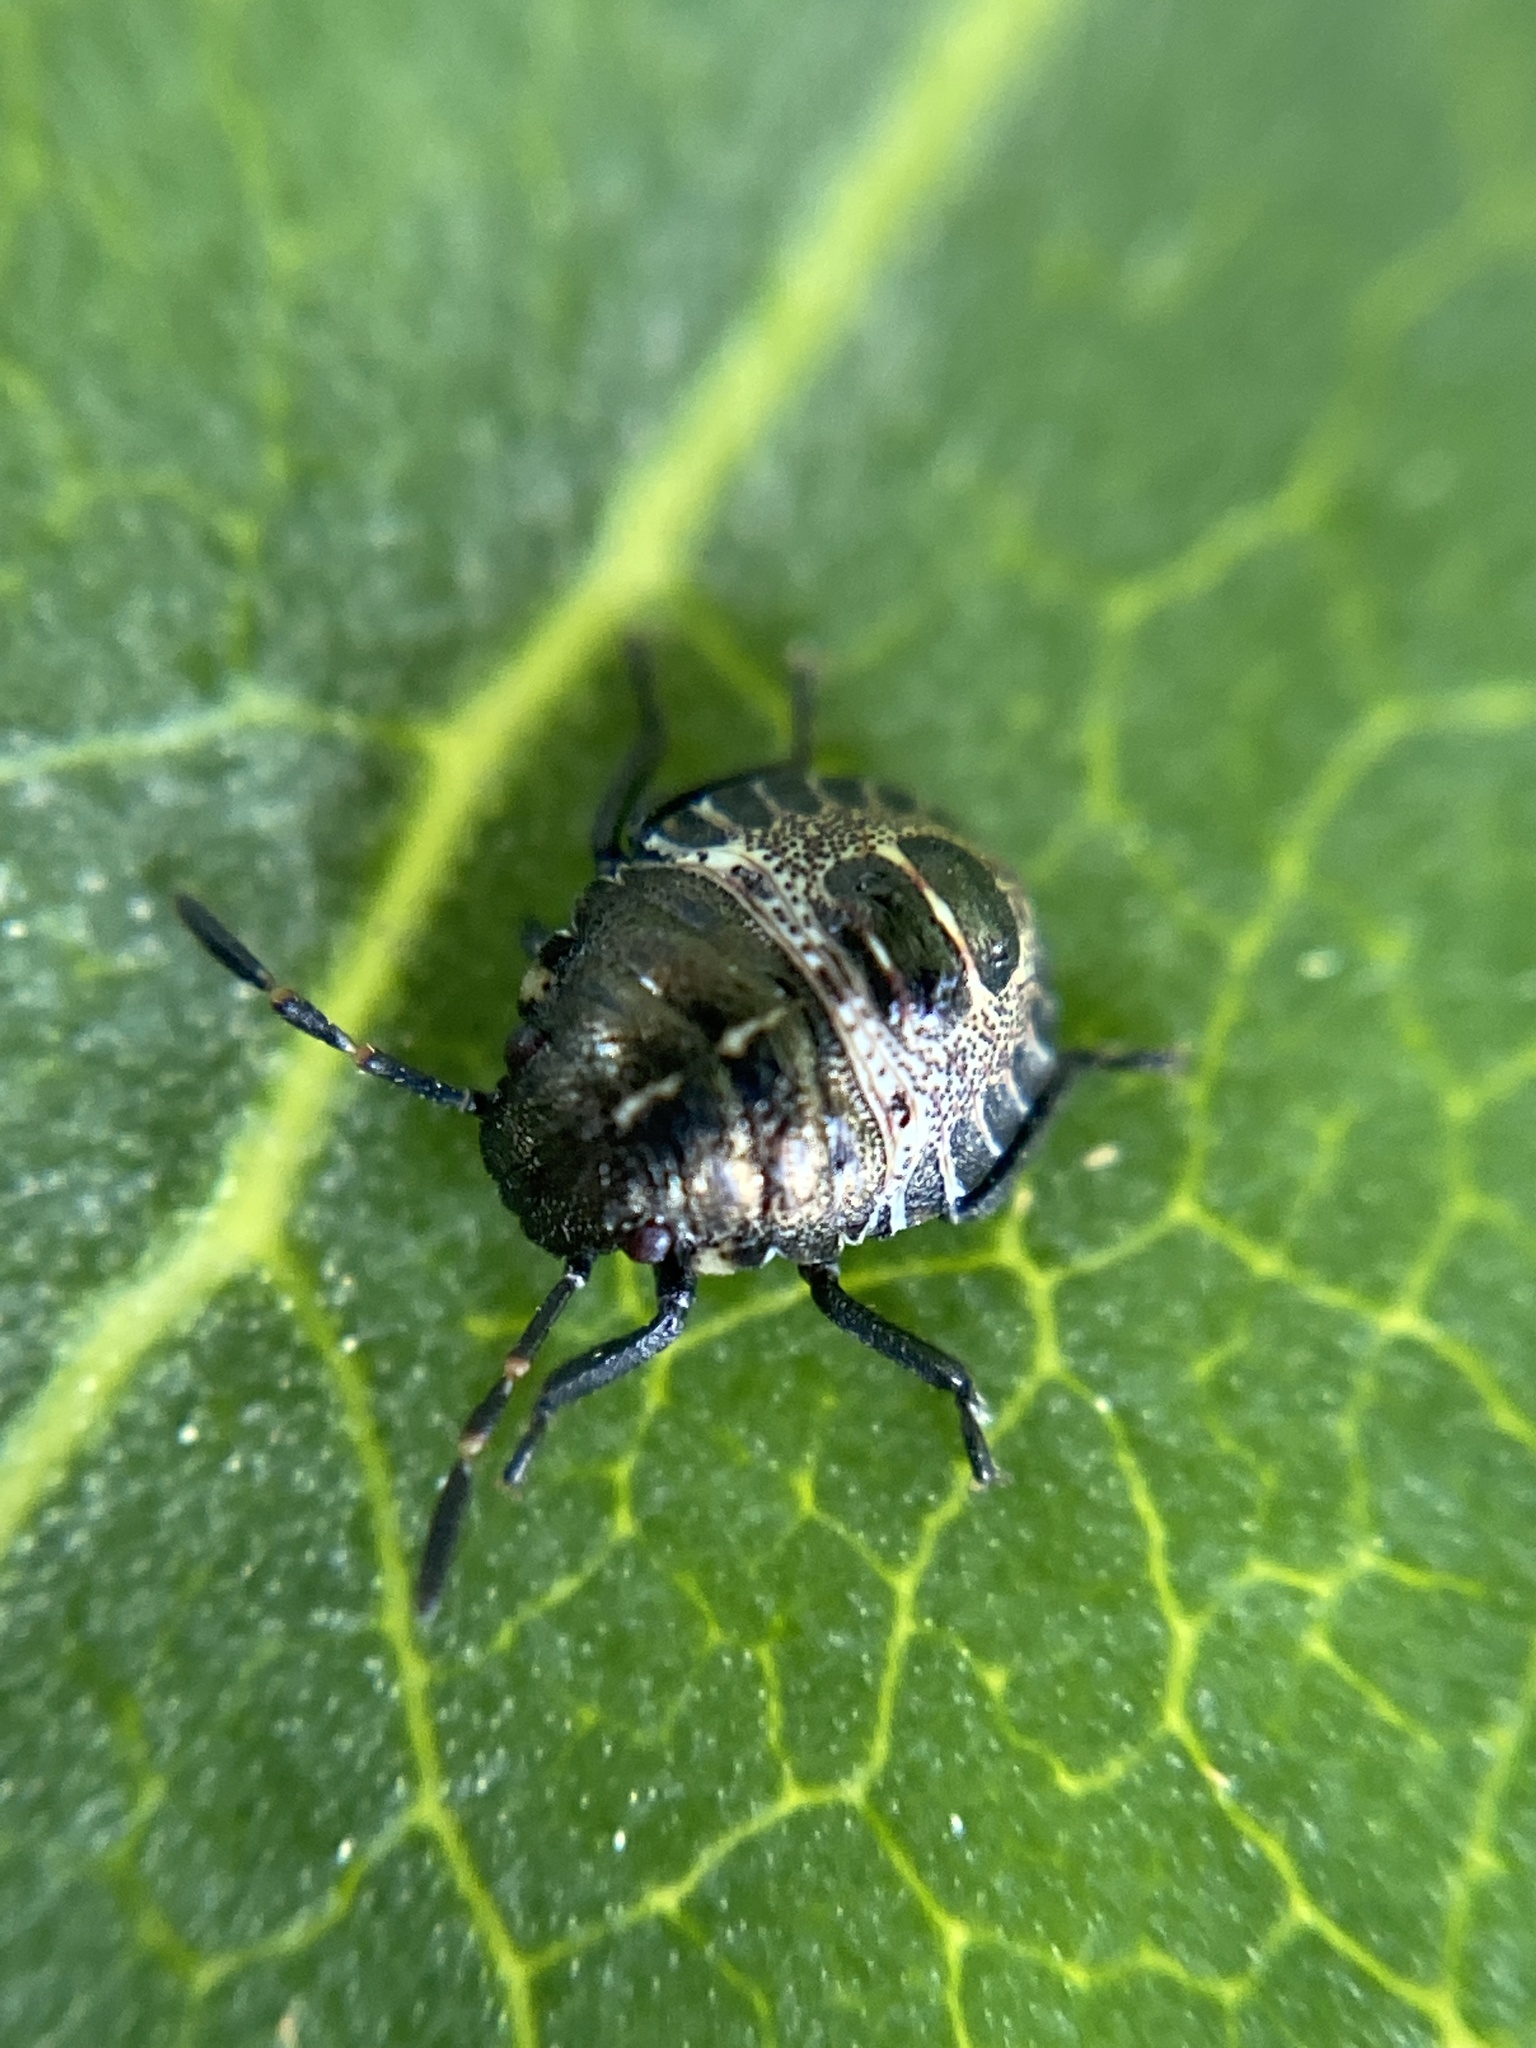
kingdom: Animalia
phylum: Arthropoda
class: Insecta
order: Hemiptera
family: Pentatomidae
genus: Rhaphigaster
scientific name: Rhaphigaster nebulosa
